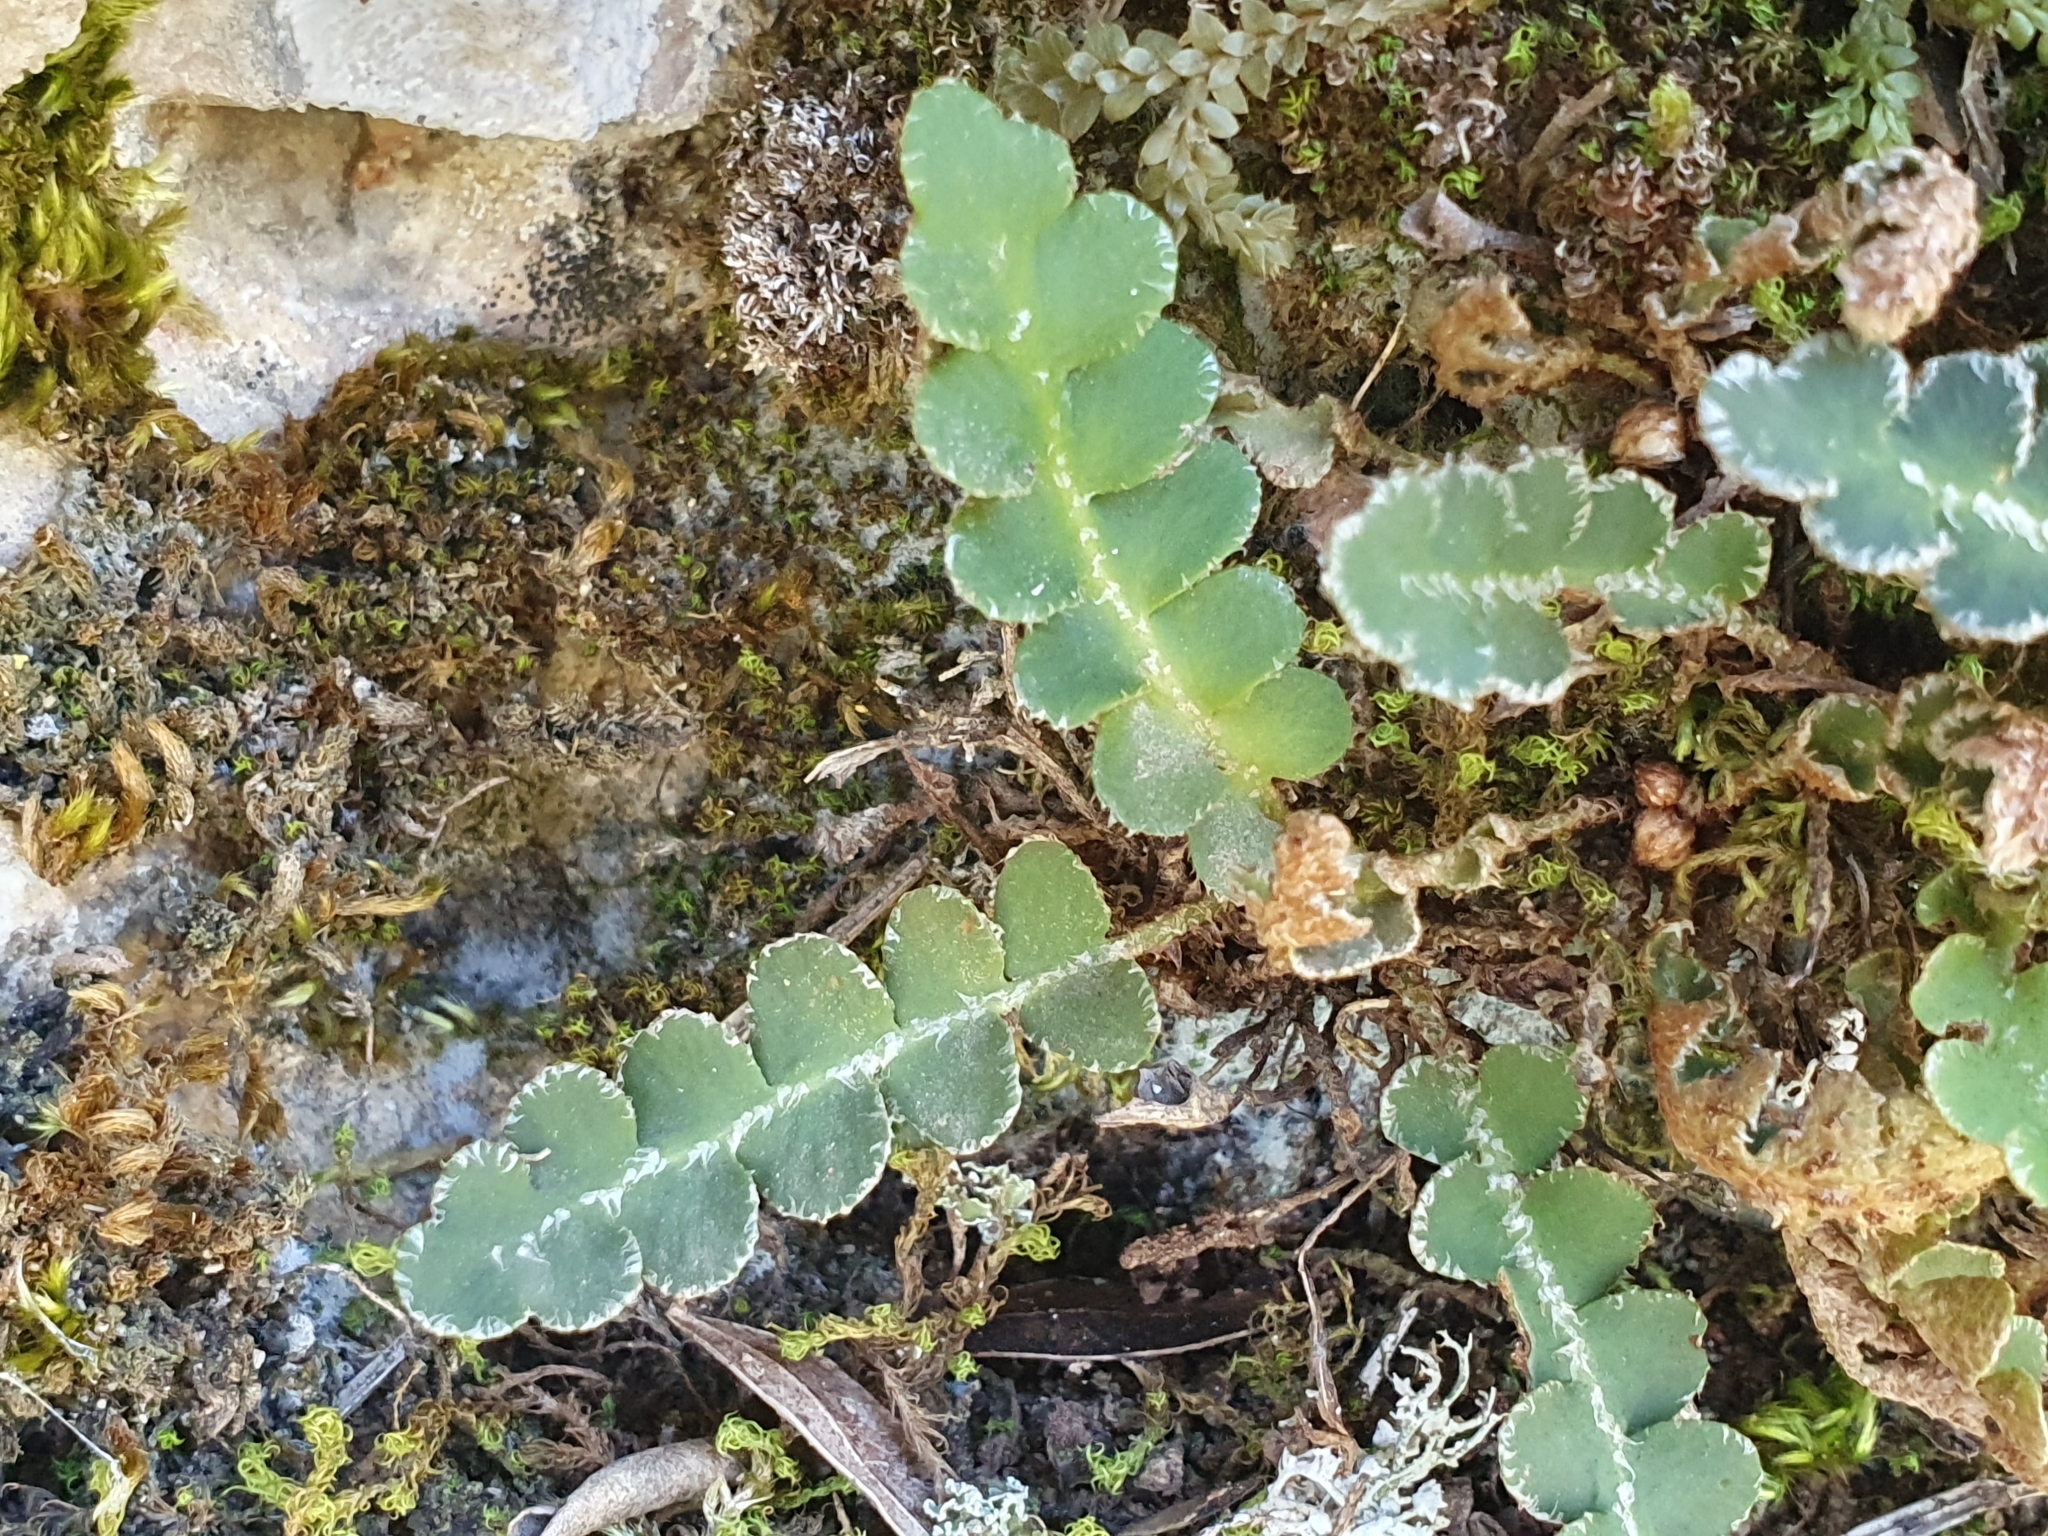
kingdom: Plantae
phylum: Tracheophyta
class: Polypodiopsida
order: Polypodiales
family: Aspleniaceae
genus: Asplenium
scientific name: Asplenium ceterach
